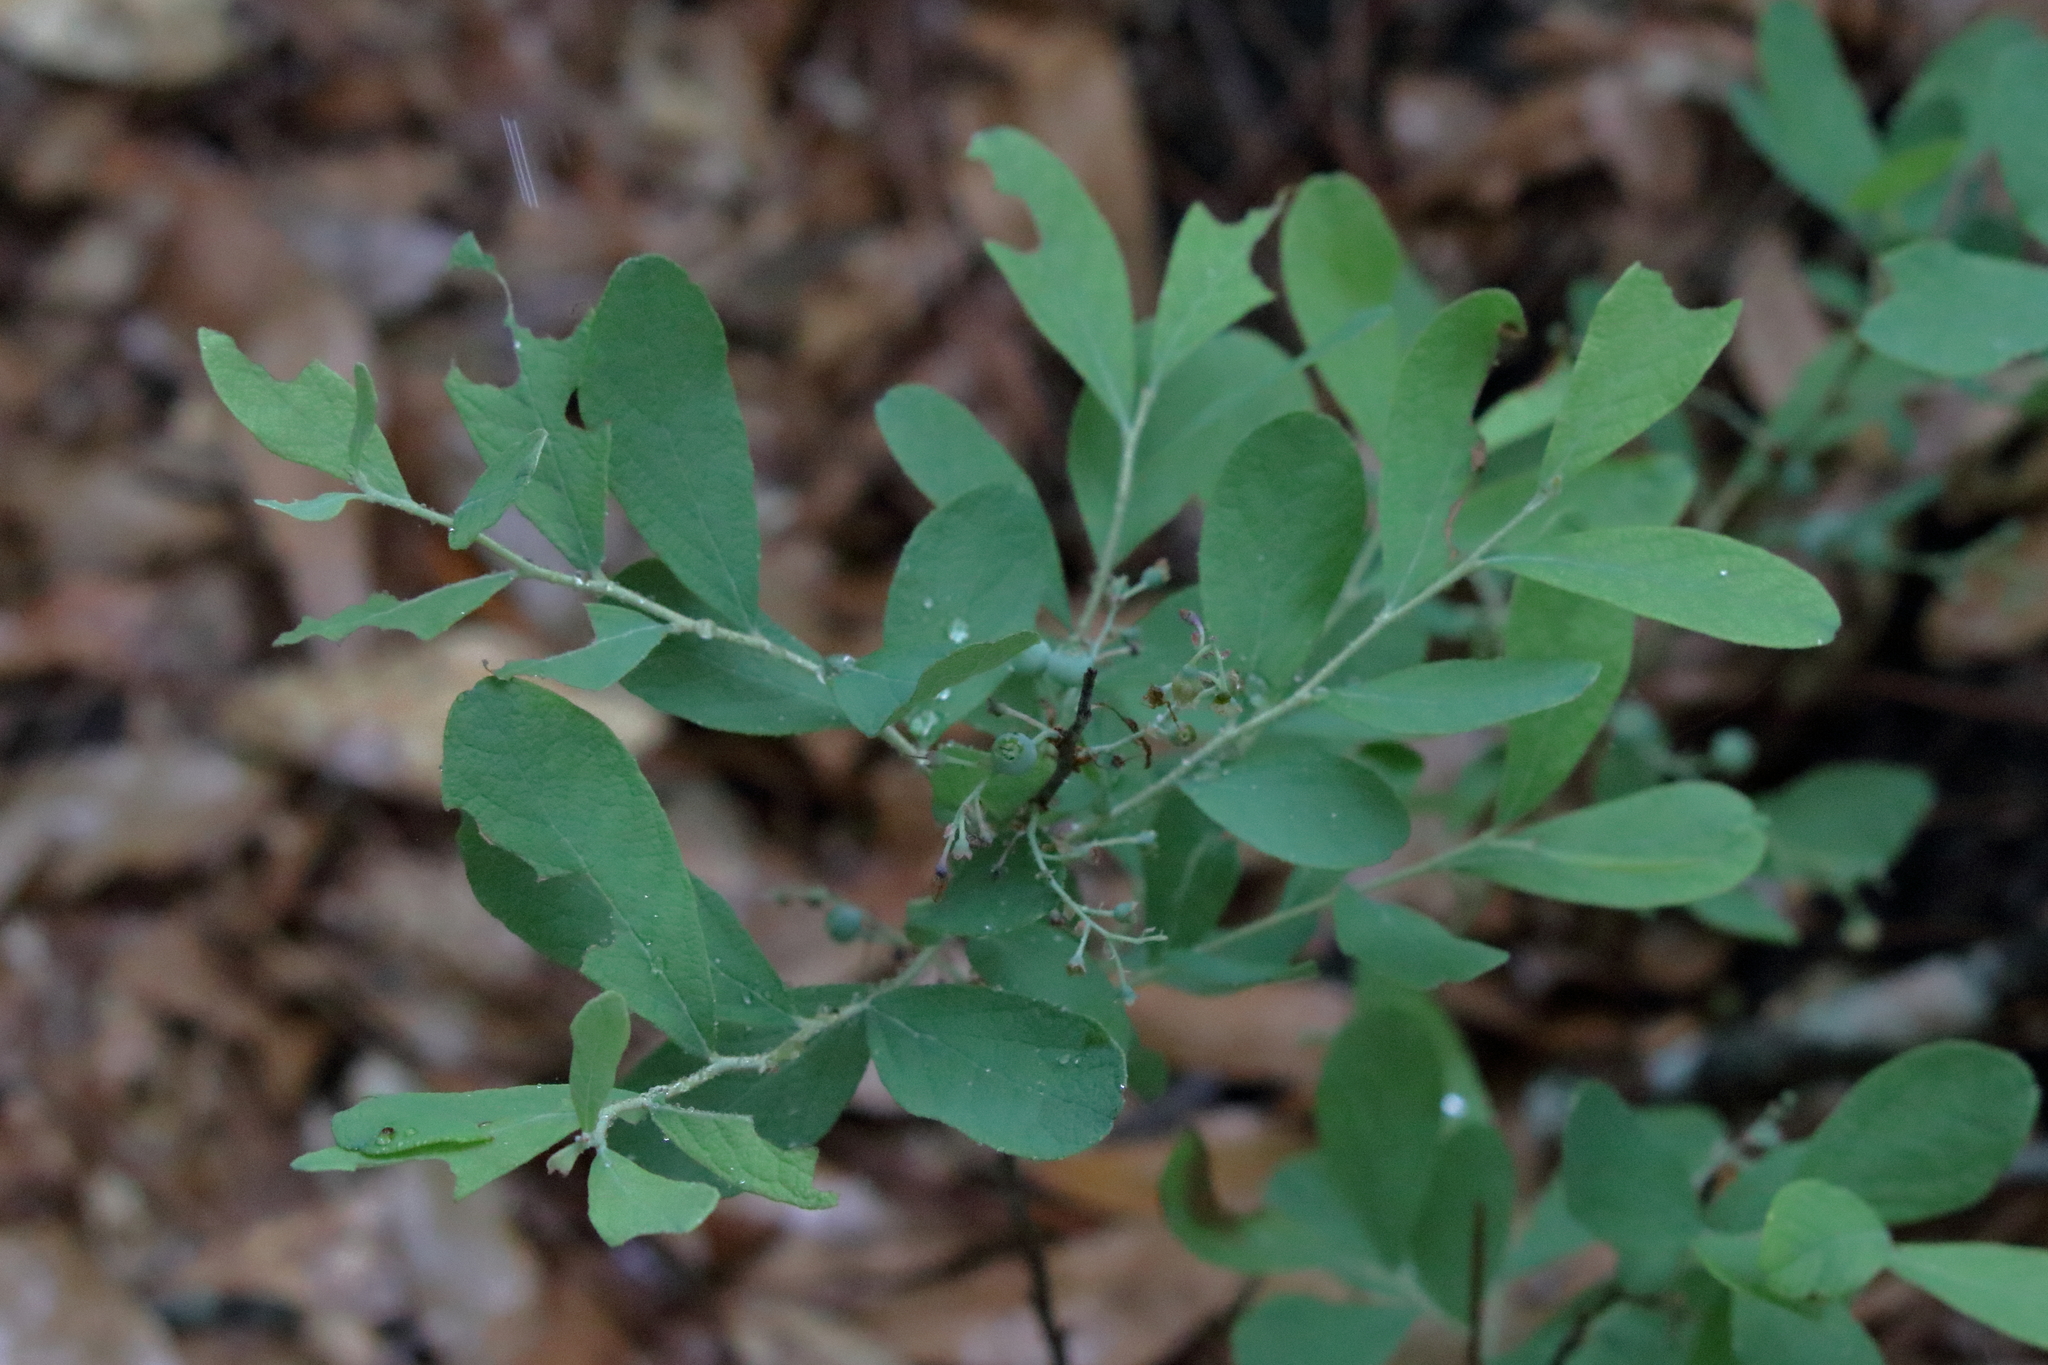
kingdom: Plantae
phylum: Tracheophyta
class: Magnoliopsida
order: Ericales
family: Ericaceae
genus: Gaylussacia
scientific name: Gaylussacia tomentosa
